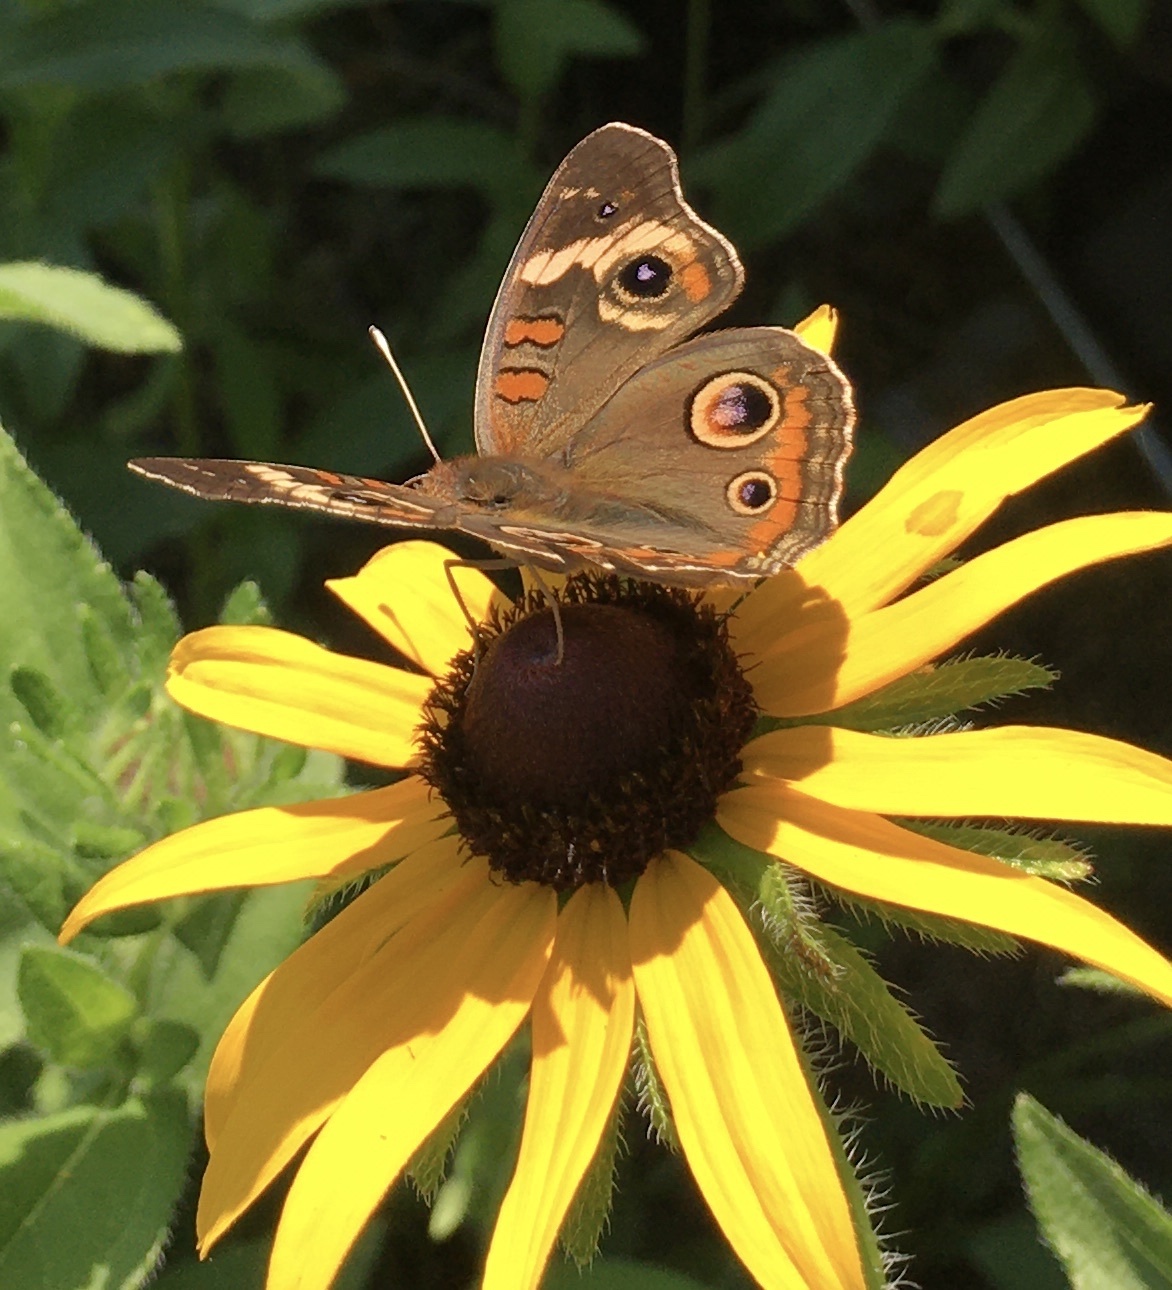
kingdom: Animalia
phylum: Arthropoda
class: Insecta
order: Lepidoptera
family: Nymphalidae
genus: Junonia
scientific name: Junonia coenia
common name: Common buckeye
